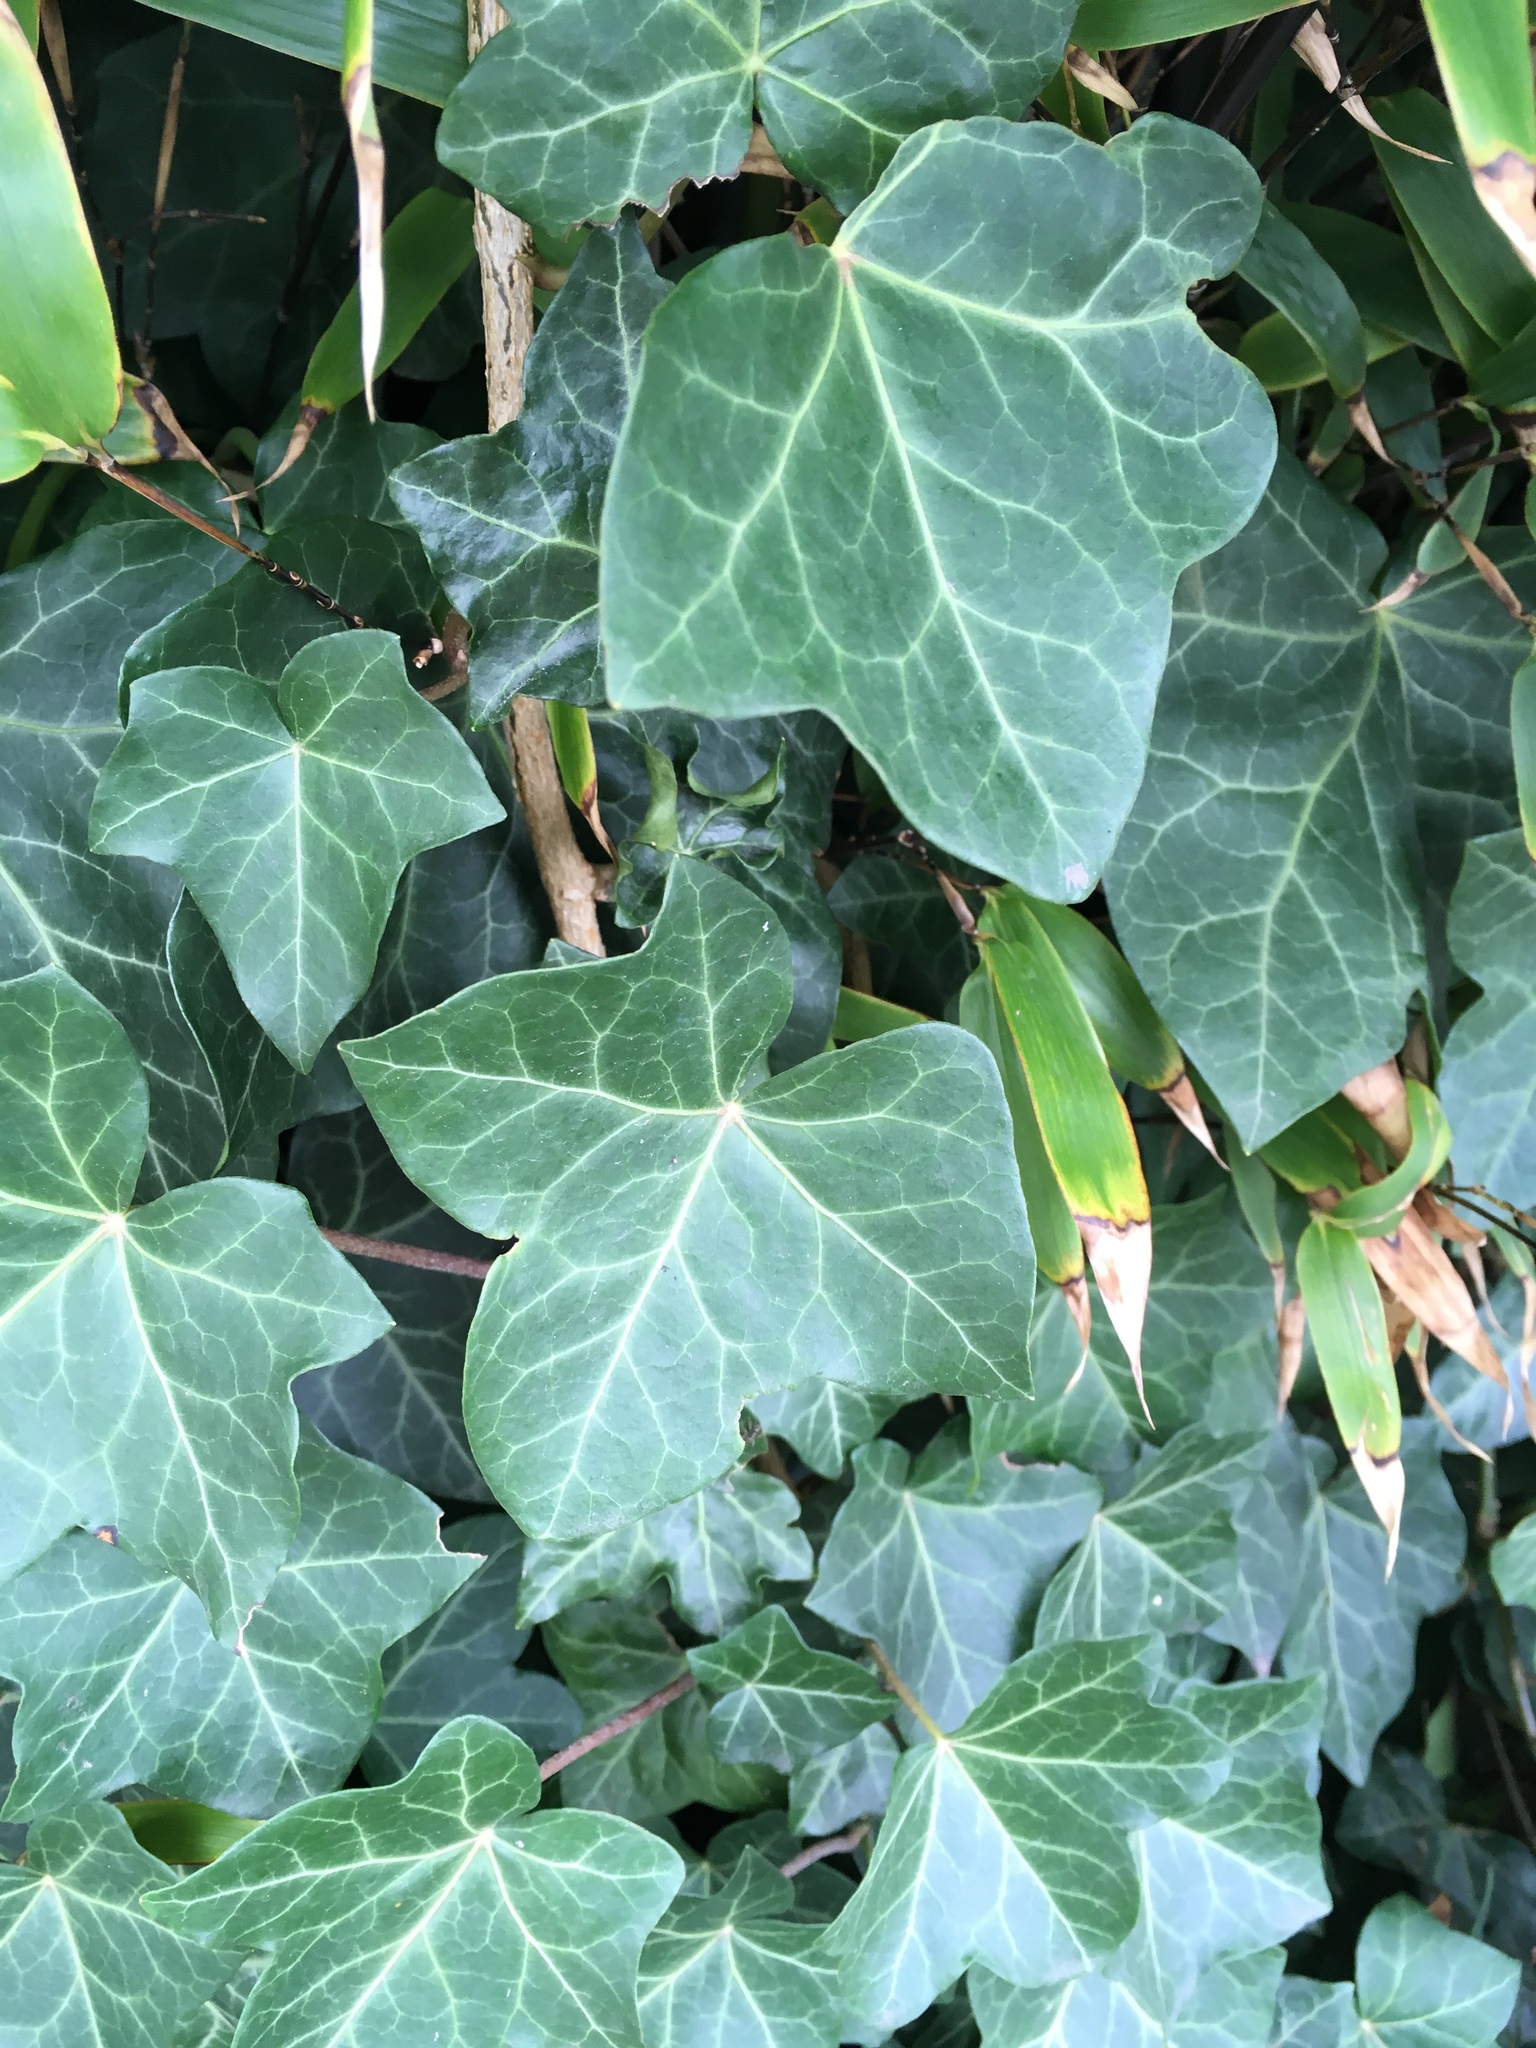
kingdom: Plantae
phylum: Tracheophyta
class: Magnoliopsida
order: Apiales
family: Araliaceae
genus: Hedera
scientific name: Hedera helix
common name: Ivy
